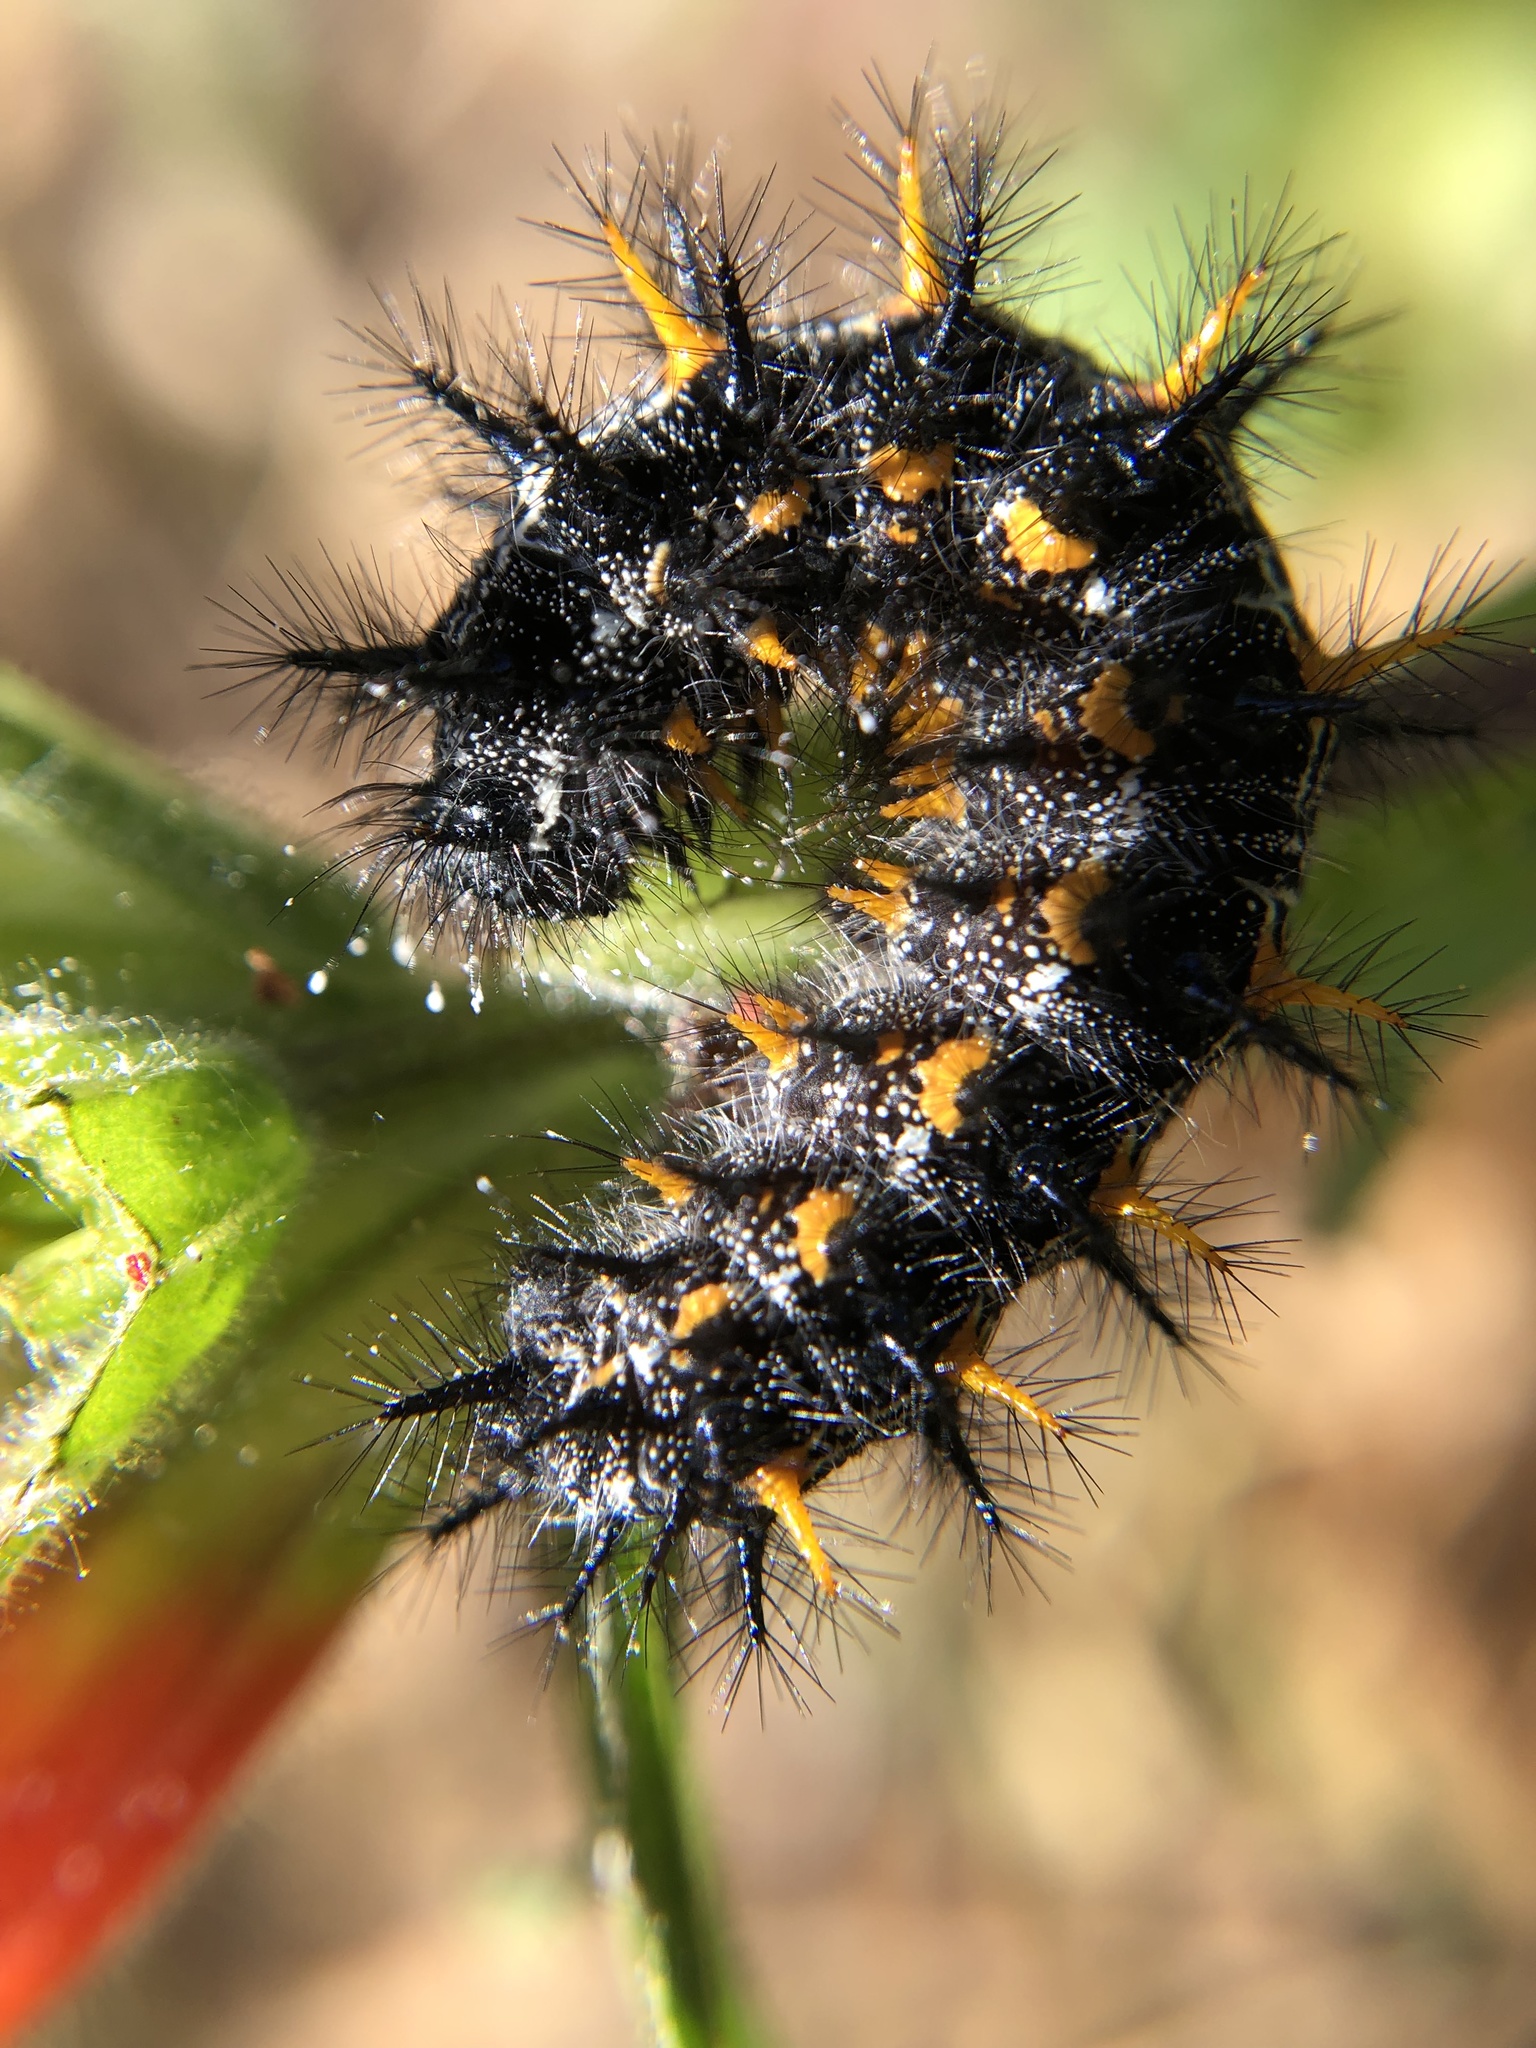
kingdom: Animalia
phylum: Arthropoda
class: Insecta
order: Lepidoptera
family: Nymphalidae
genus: Occidryas
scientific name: Occidryas chalcedona
